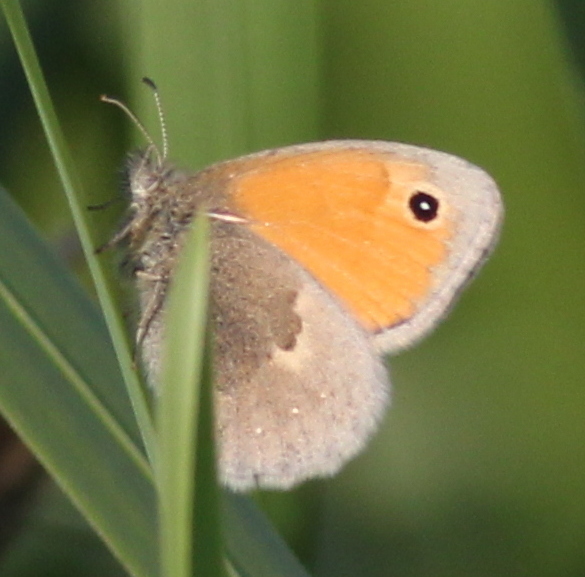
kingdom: Animalia
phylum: Arthropoda
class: Insecta
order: Lepidoptera
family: Nymphalidae
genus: Coenonympha
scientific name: Coenonympha pamphilus
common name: Small heath
